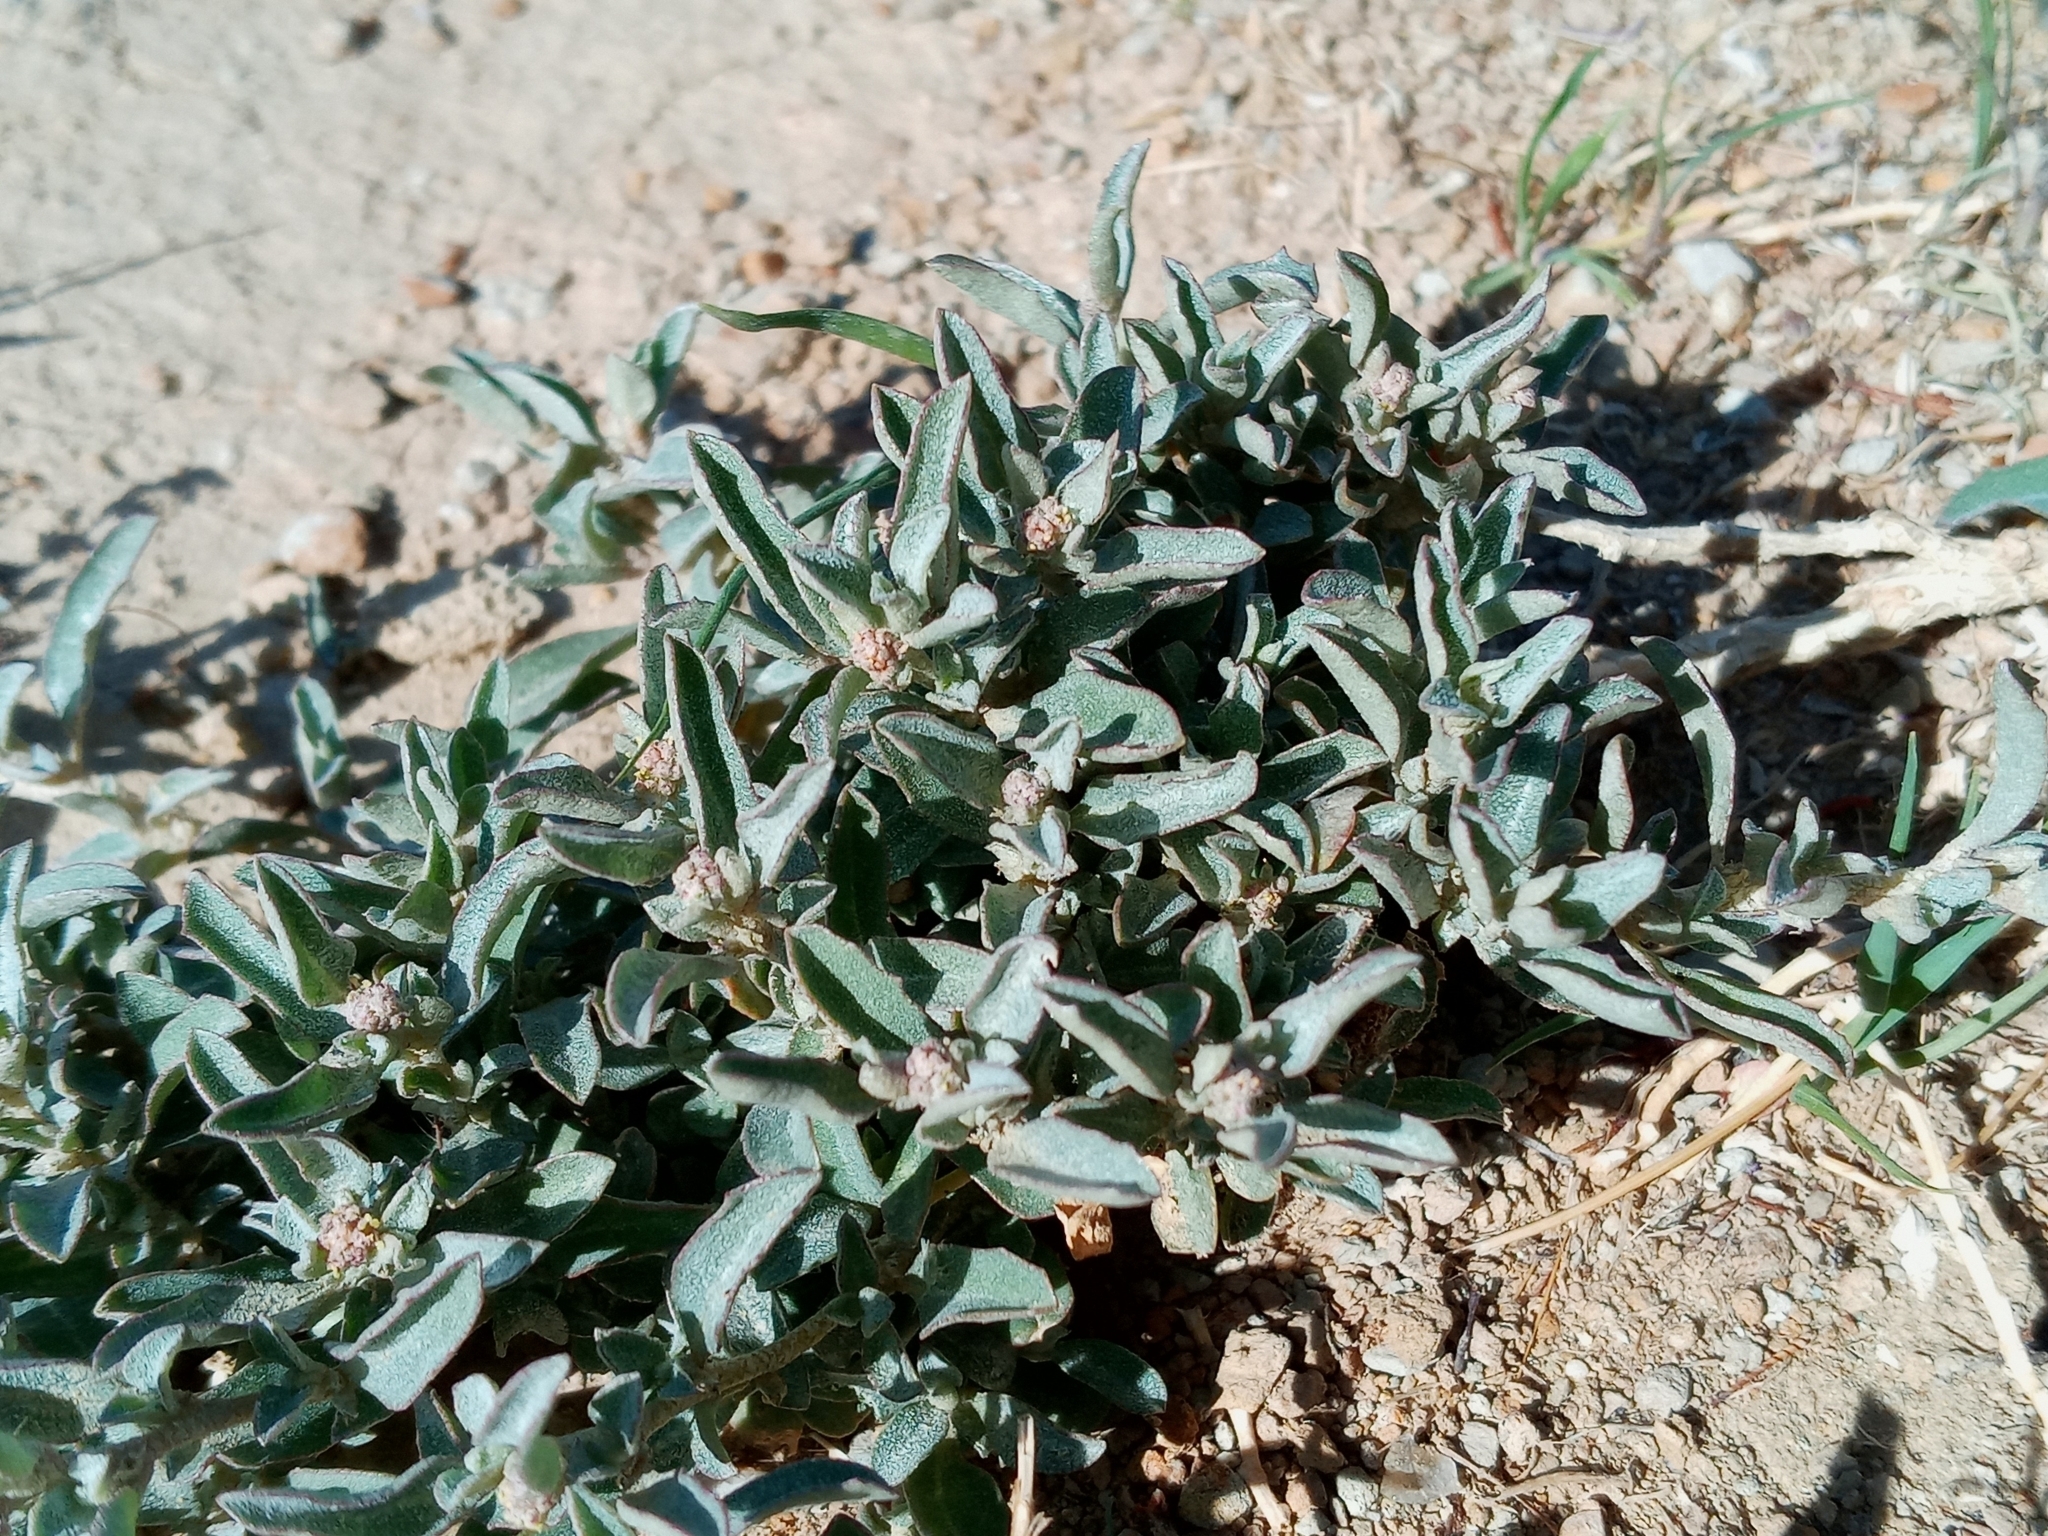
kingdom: Plantae
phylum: Tracheophyta
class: Magnoliopsida
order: Caryophyllales
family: Amaranthaceae
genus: Atriplex
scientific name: Atriplex semibaccata
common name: Australian saltbush
